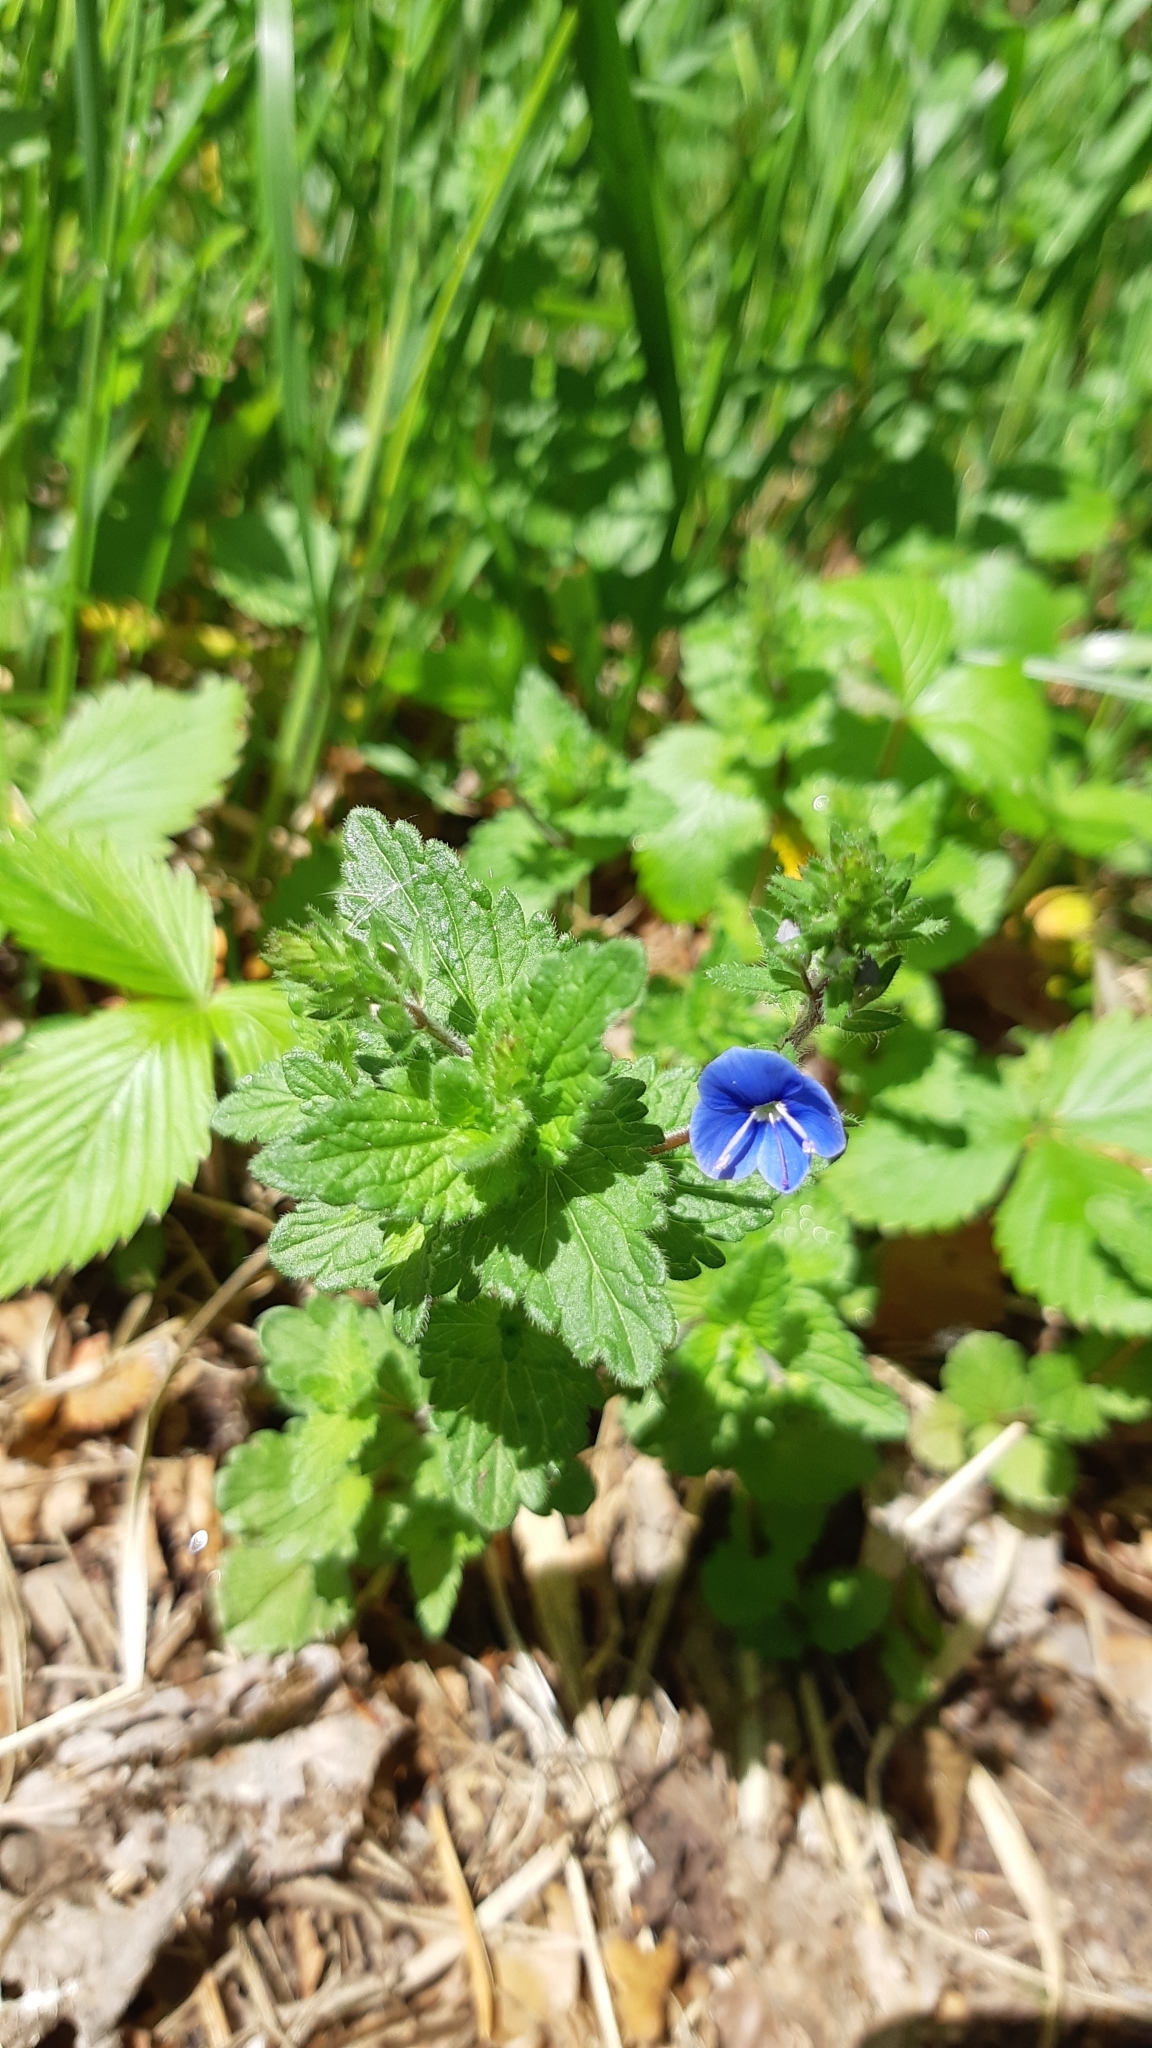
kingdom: Plantae
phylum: Tracheophyta
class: Magnoliopsida
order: Lamiales
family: Plantaginaceae
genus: Veronica
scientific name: Veronica chamaedrys
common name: Germander speedwell
